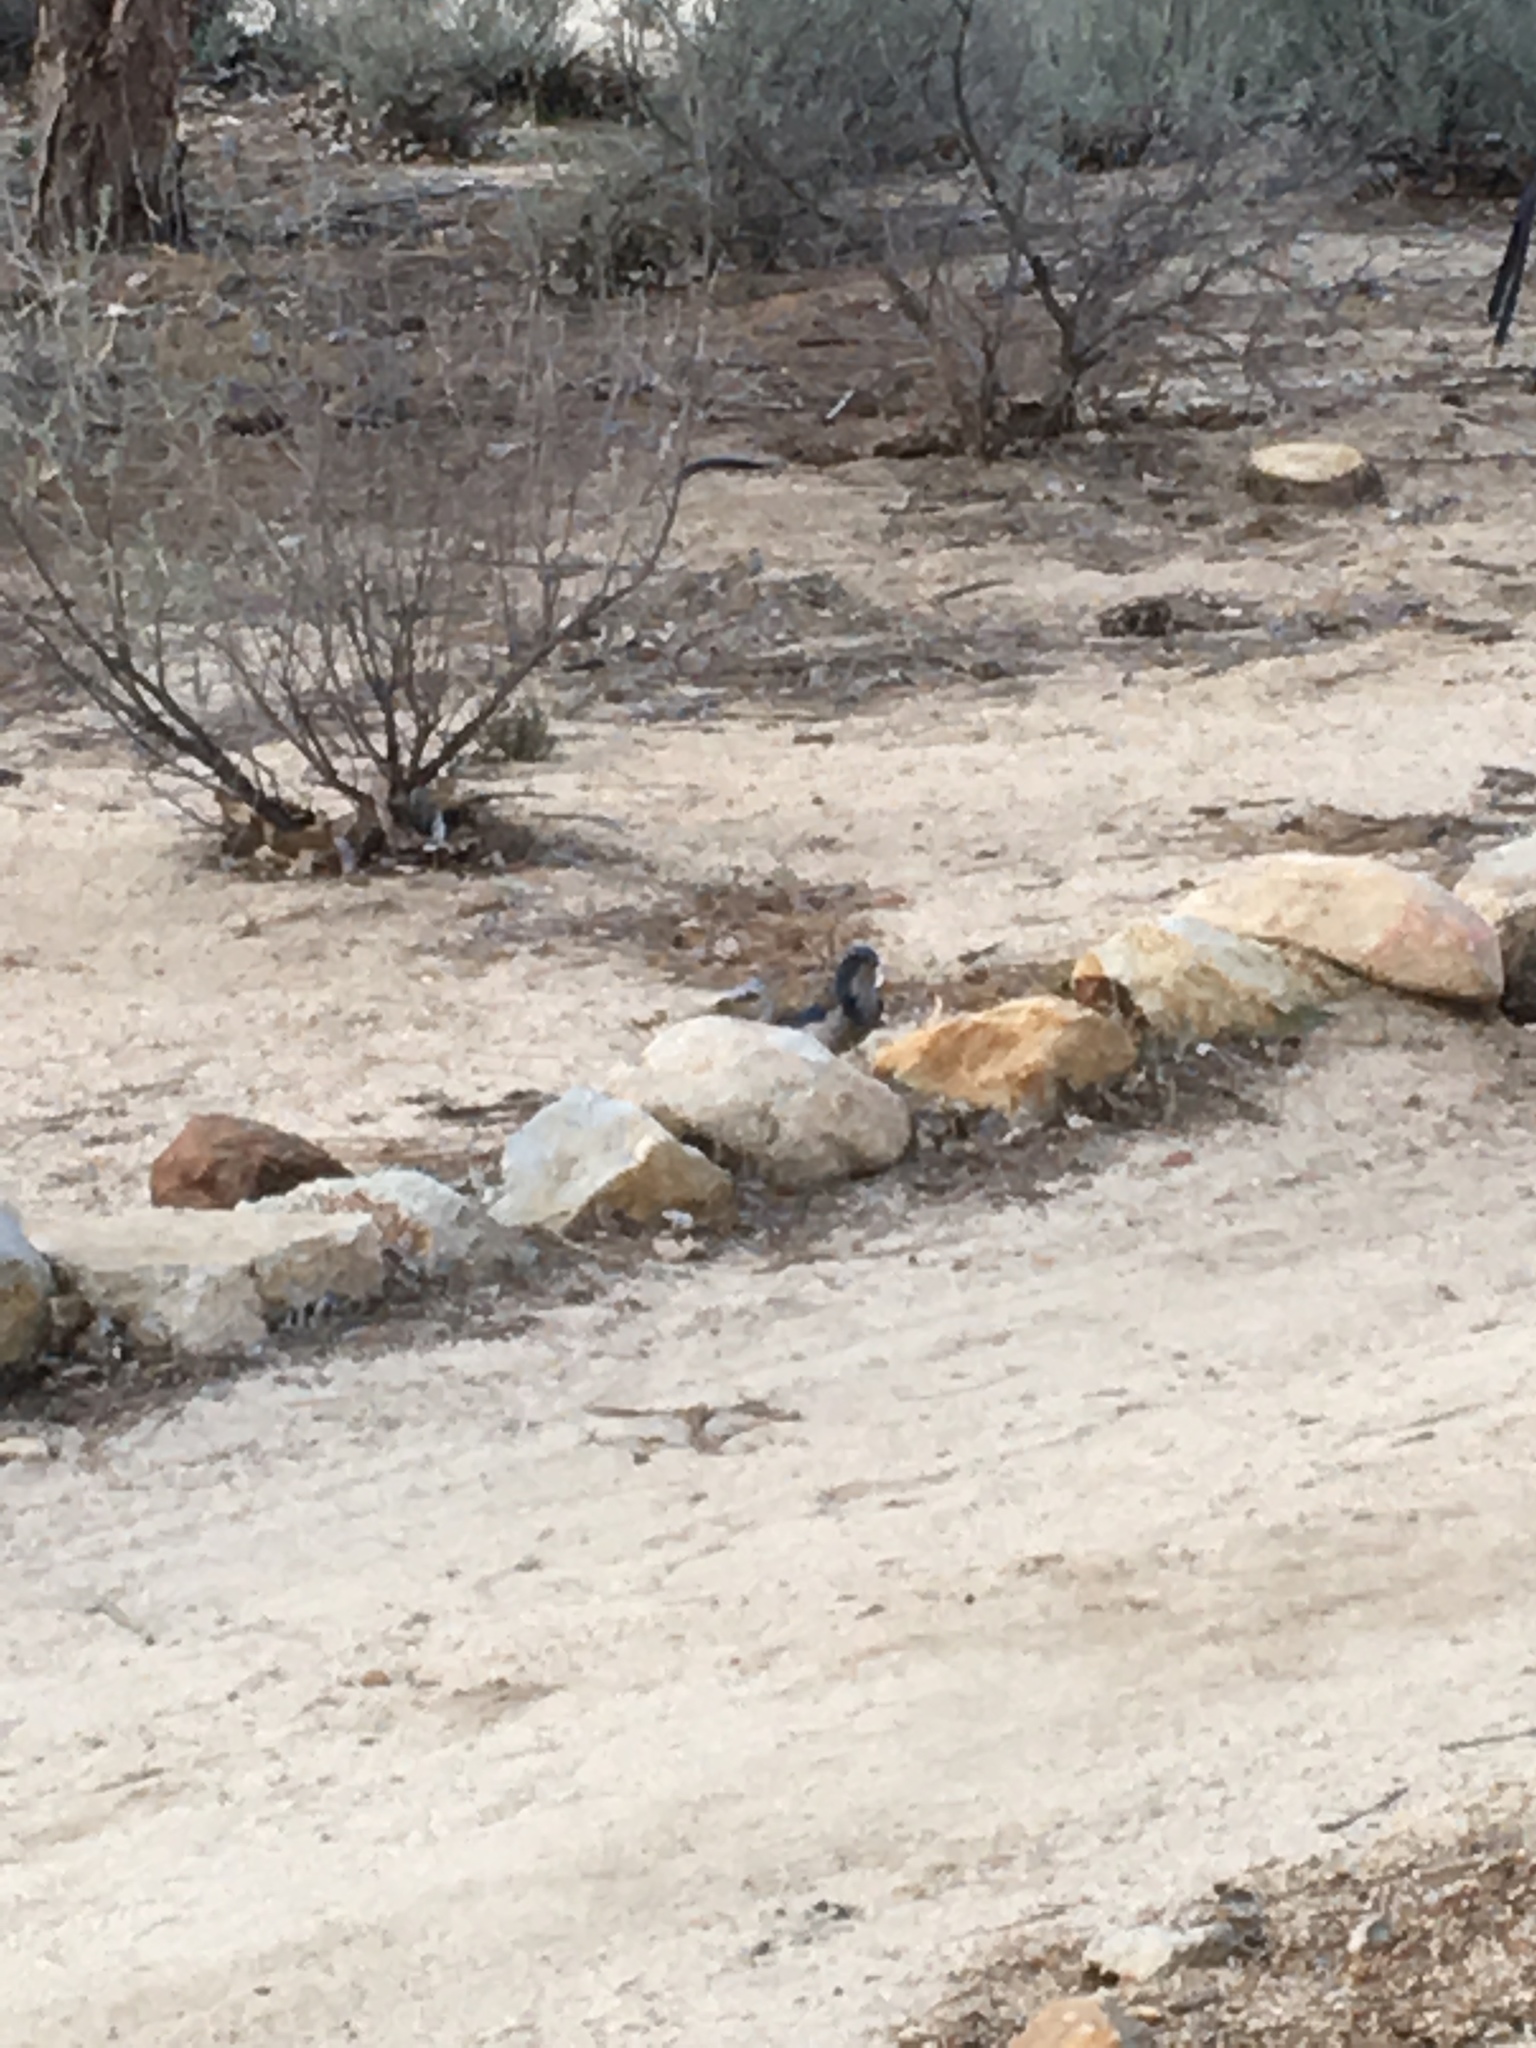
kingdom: Animalia
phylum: Chordata
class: Aves
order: Passeriformes
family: Corvidae
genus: Aphelocoma
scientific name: Aphelocoma californica
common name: California scrub-jay
